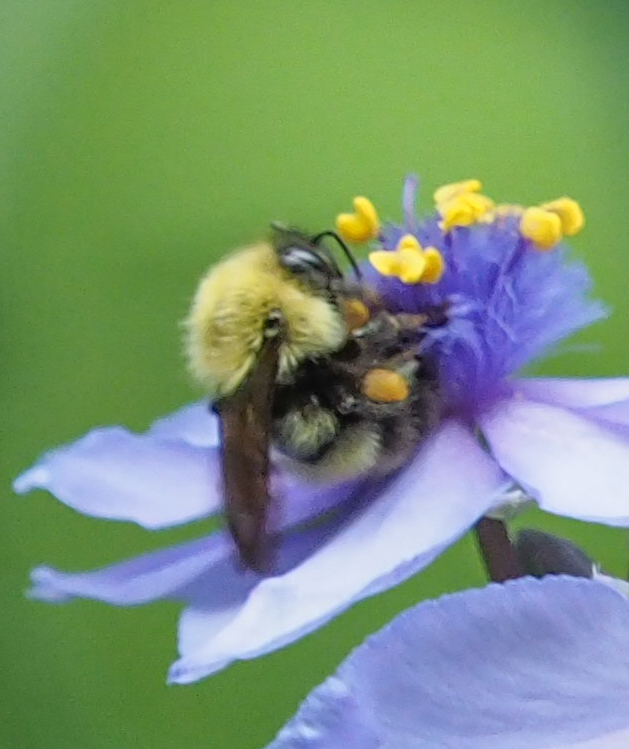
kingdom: Animalia
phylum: Arthropoda
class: Insecta
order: Hymenoptera
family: Apidae
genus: Bombus
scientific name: Bombus perplexus
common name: Confusing bumble bee
